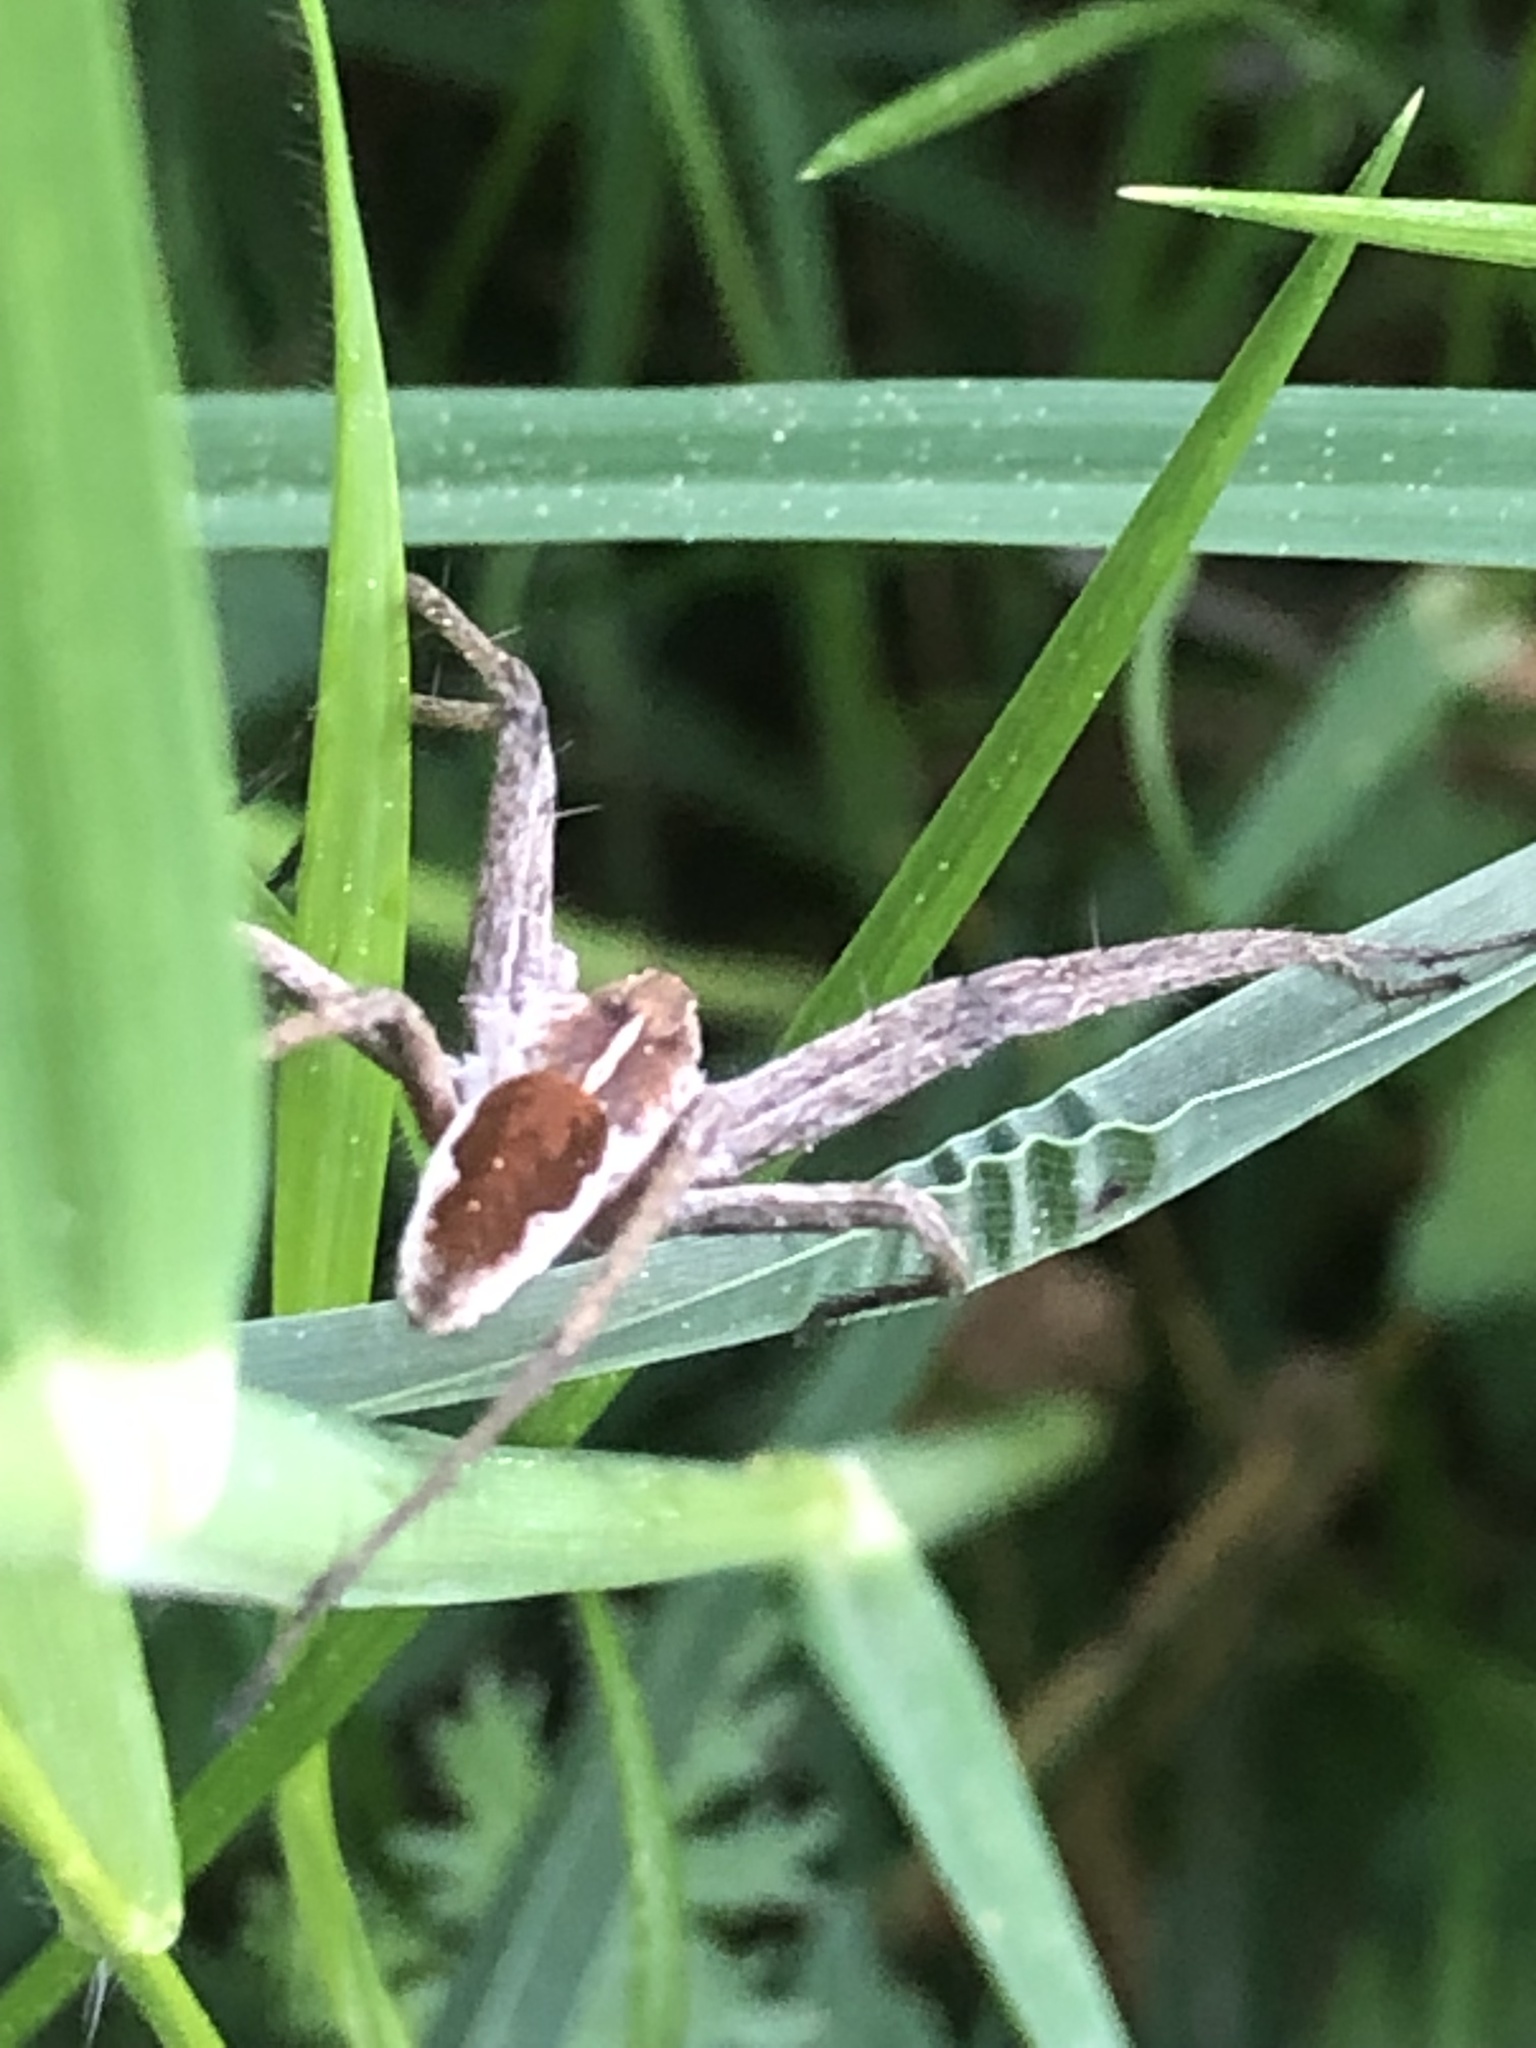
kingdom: Animalia
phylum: Arthropoda
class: Arachnida
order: Araneae
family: Pisauridae
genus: Pisaura
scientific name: Pisaura mirabilis
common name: Tent spider
